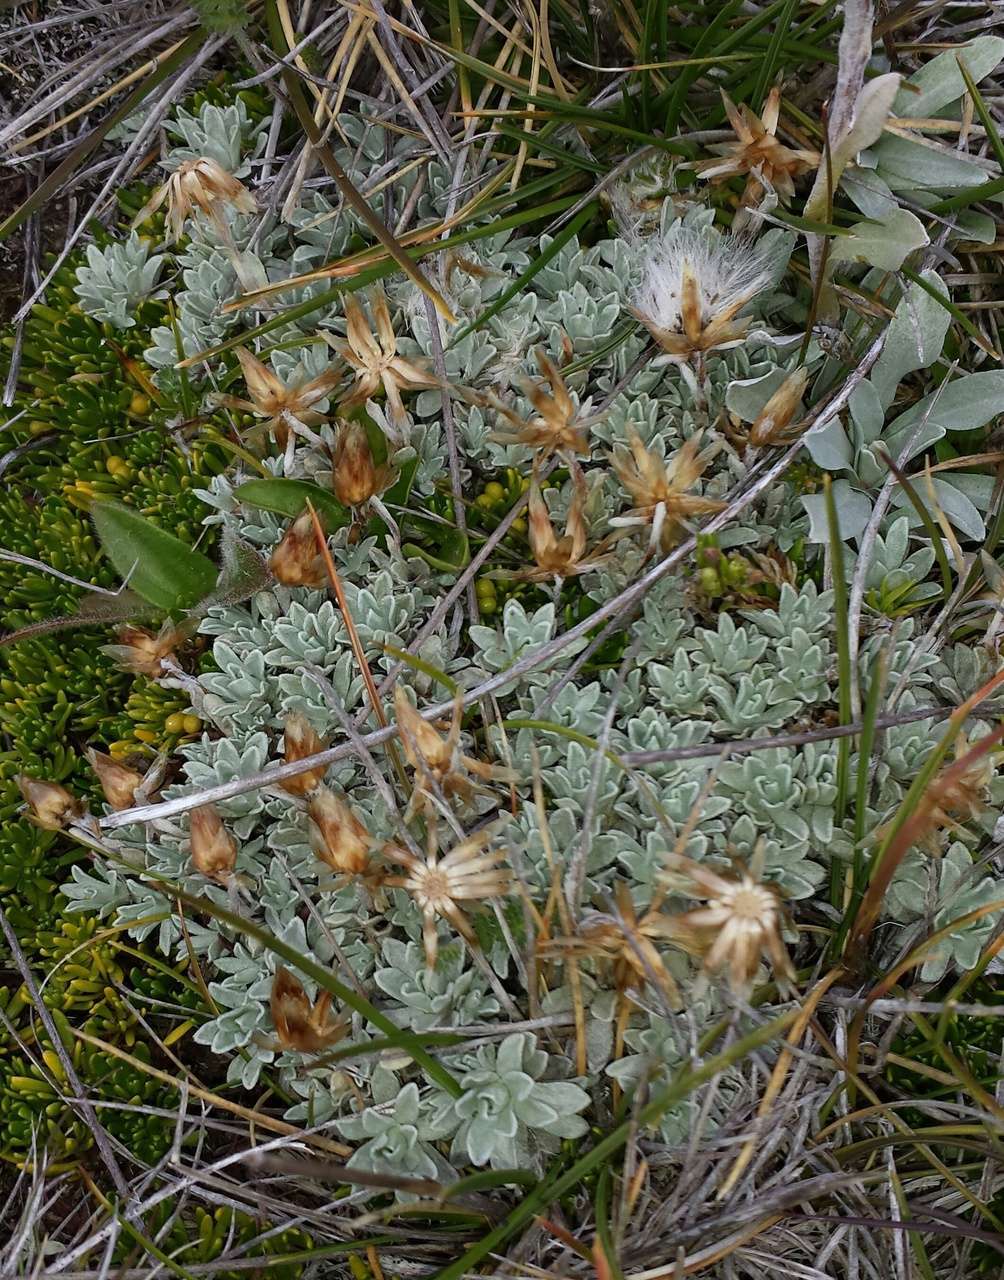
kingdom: Plantae
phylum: Tracheophyta
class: Magnoliopsida
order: Asterales
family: Asteraceae
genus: Argyrotegium
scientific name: Argyrotegium nitidulum
